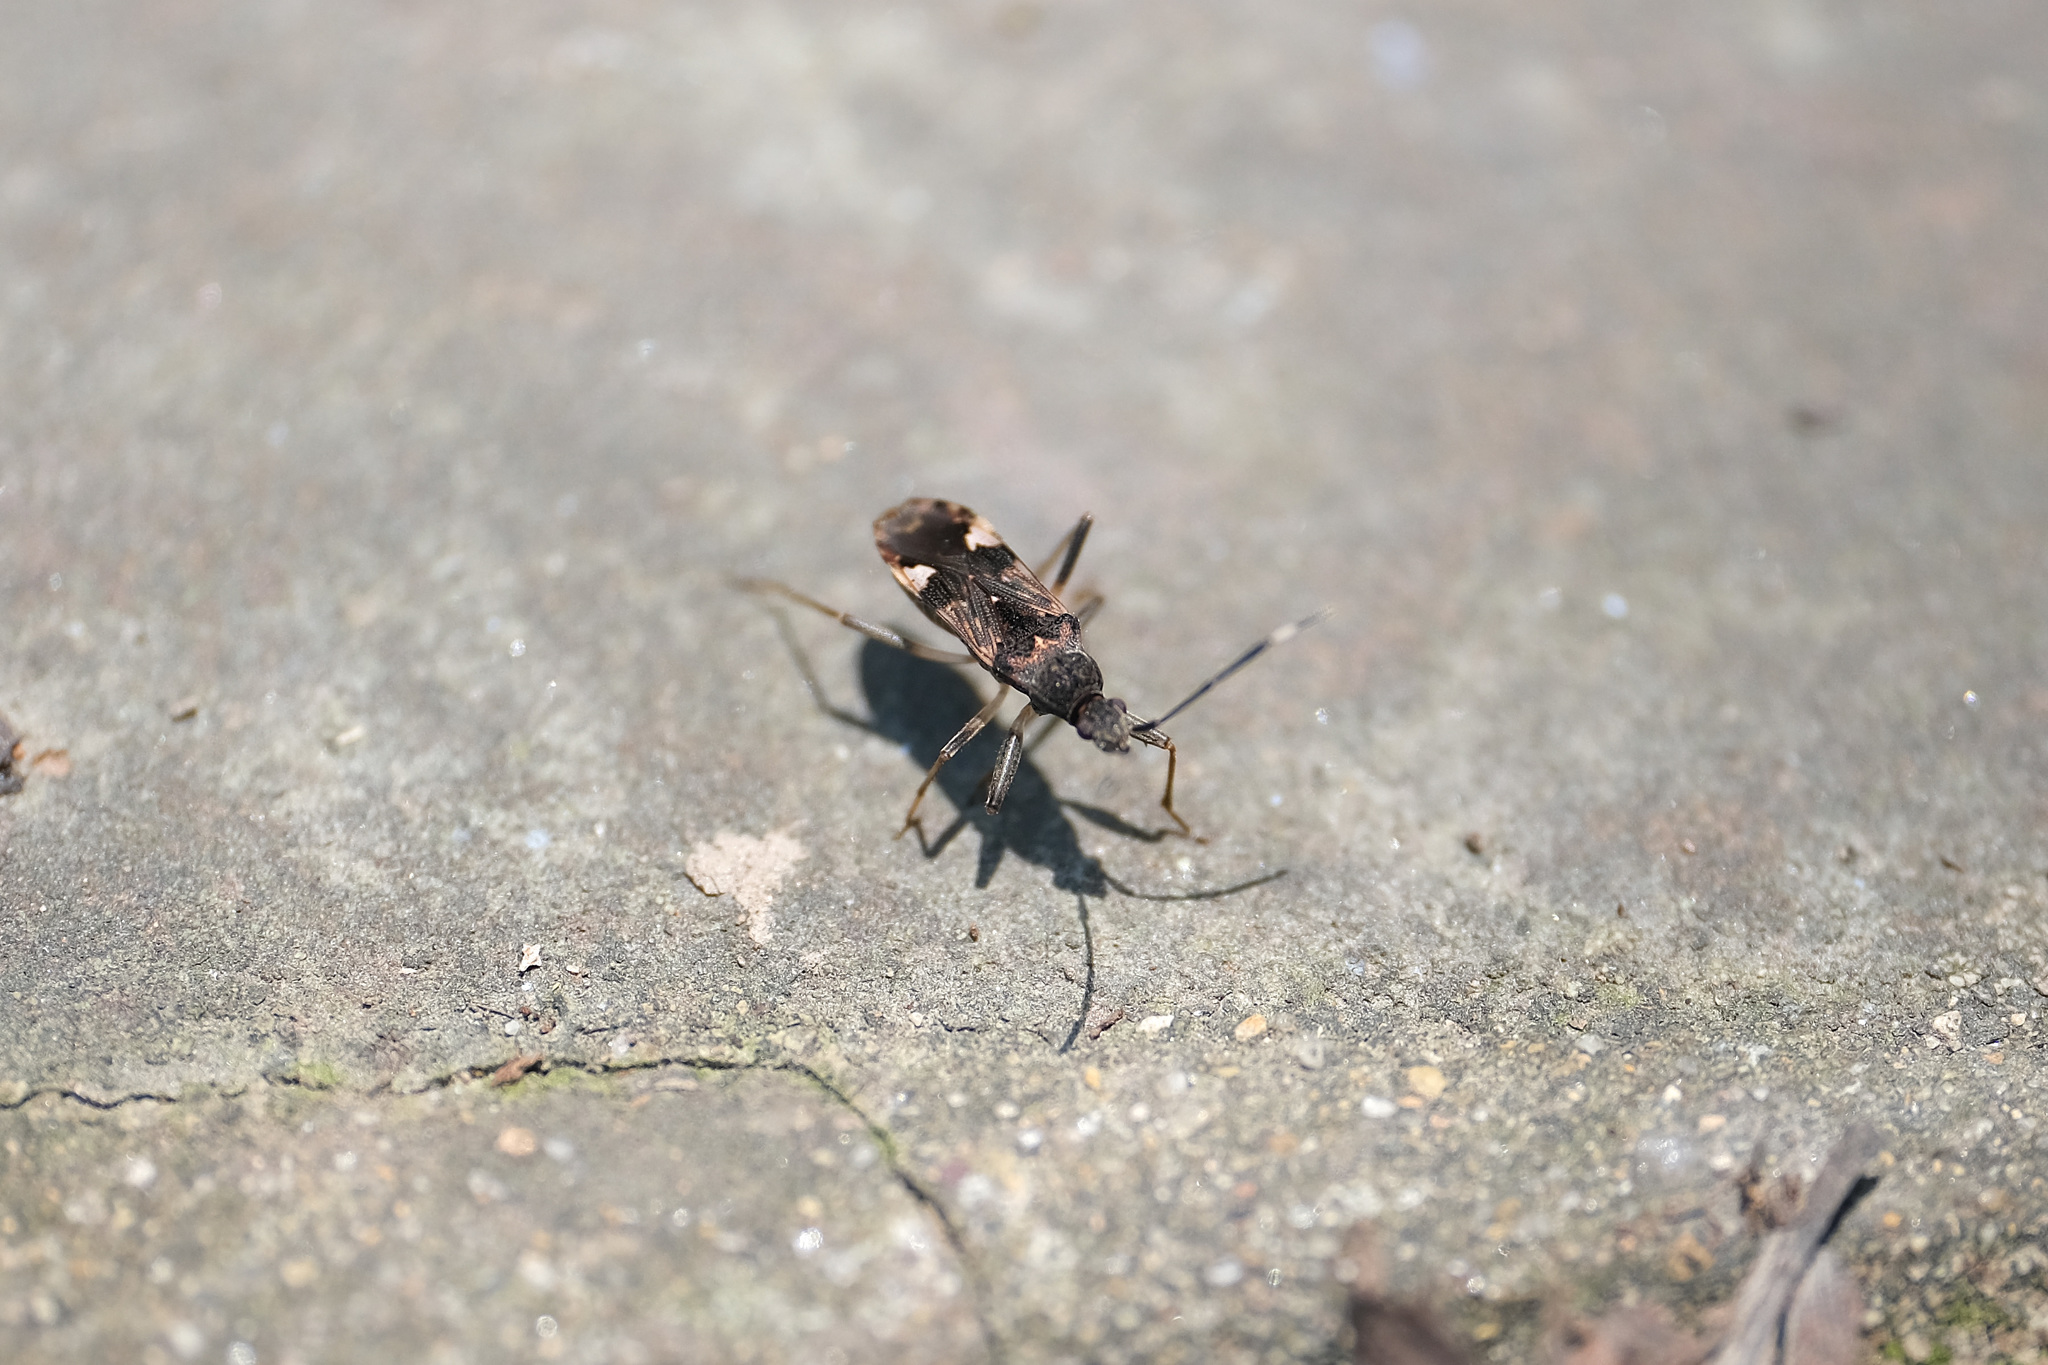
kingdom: Animalia
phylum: Arthropoda
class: Insecta
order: Hemiptera
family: Rhyparochromidae
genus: Metochus
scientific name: Metochus abbreviatus
